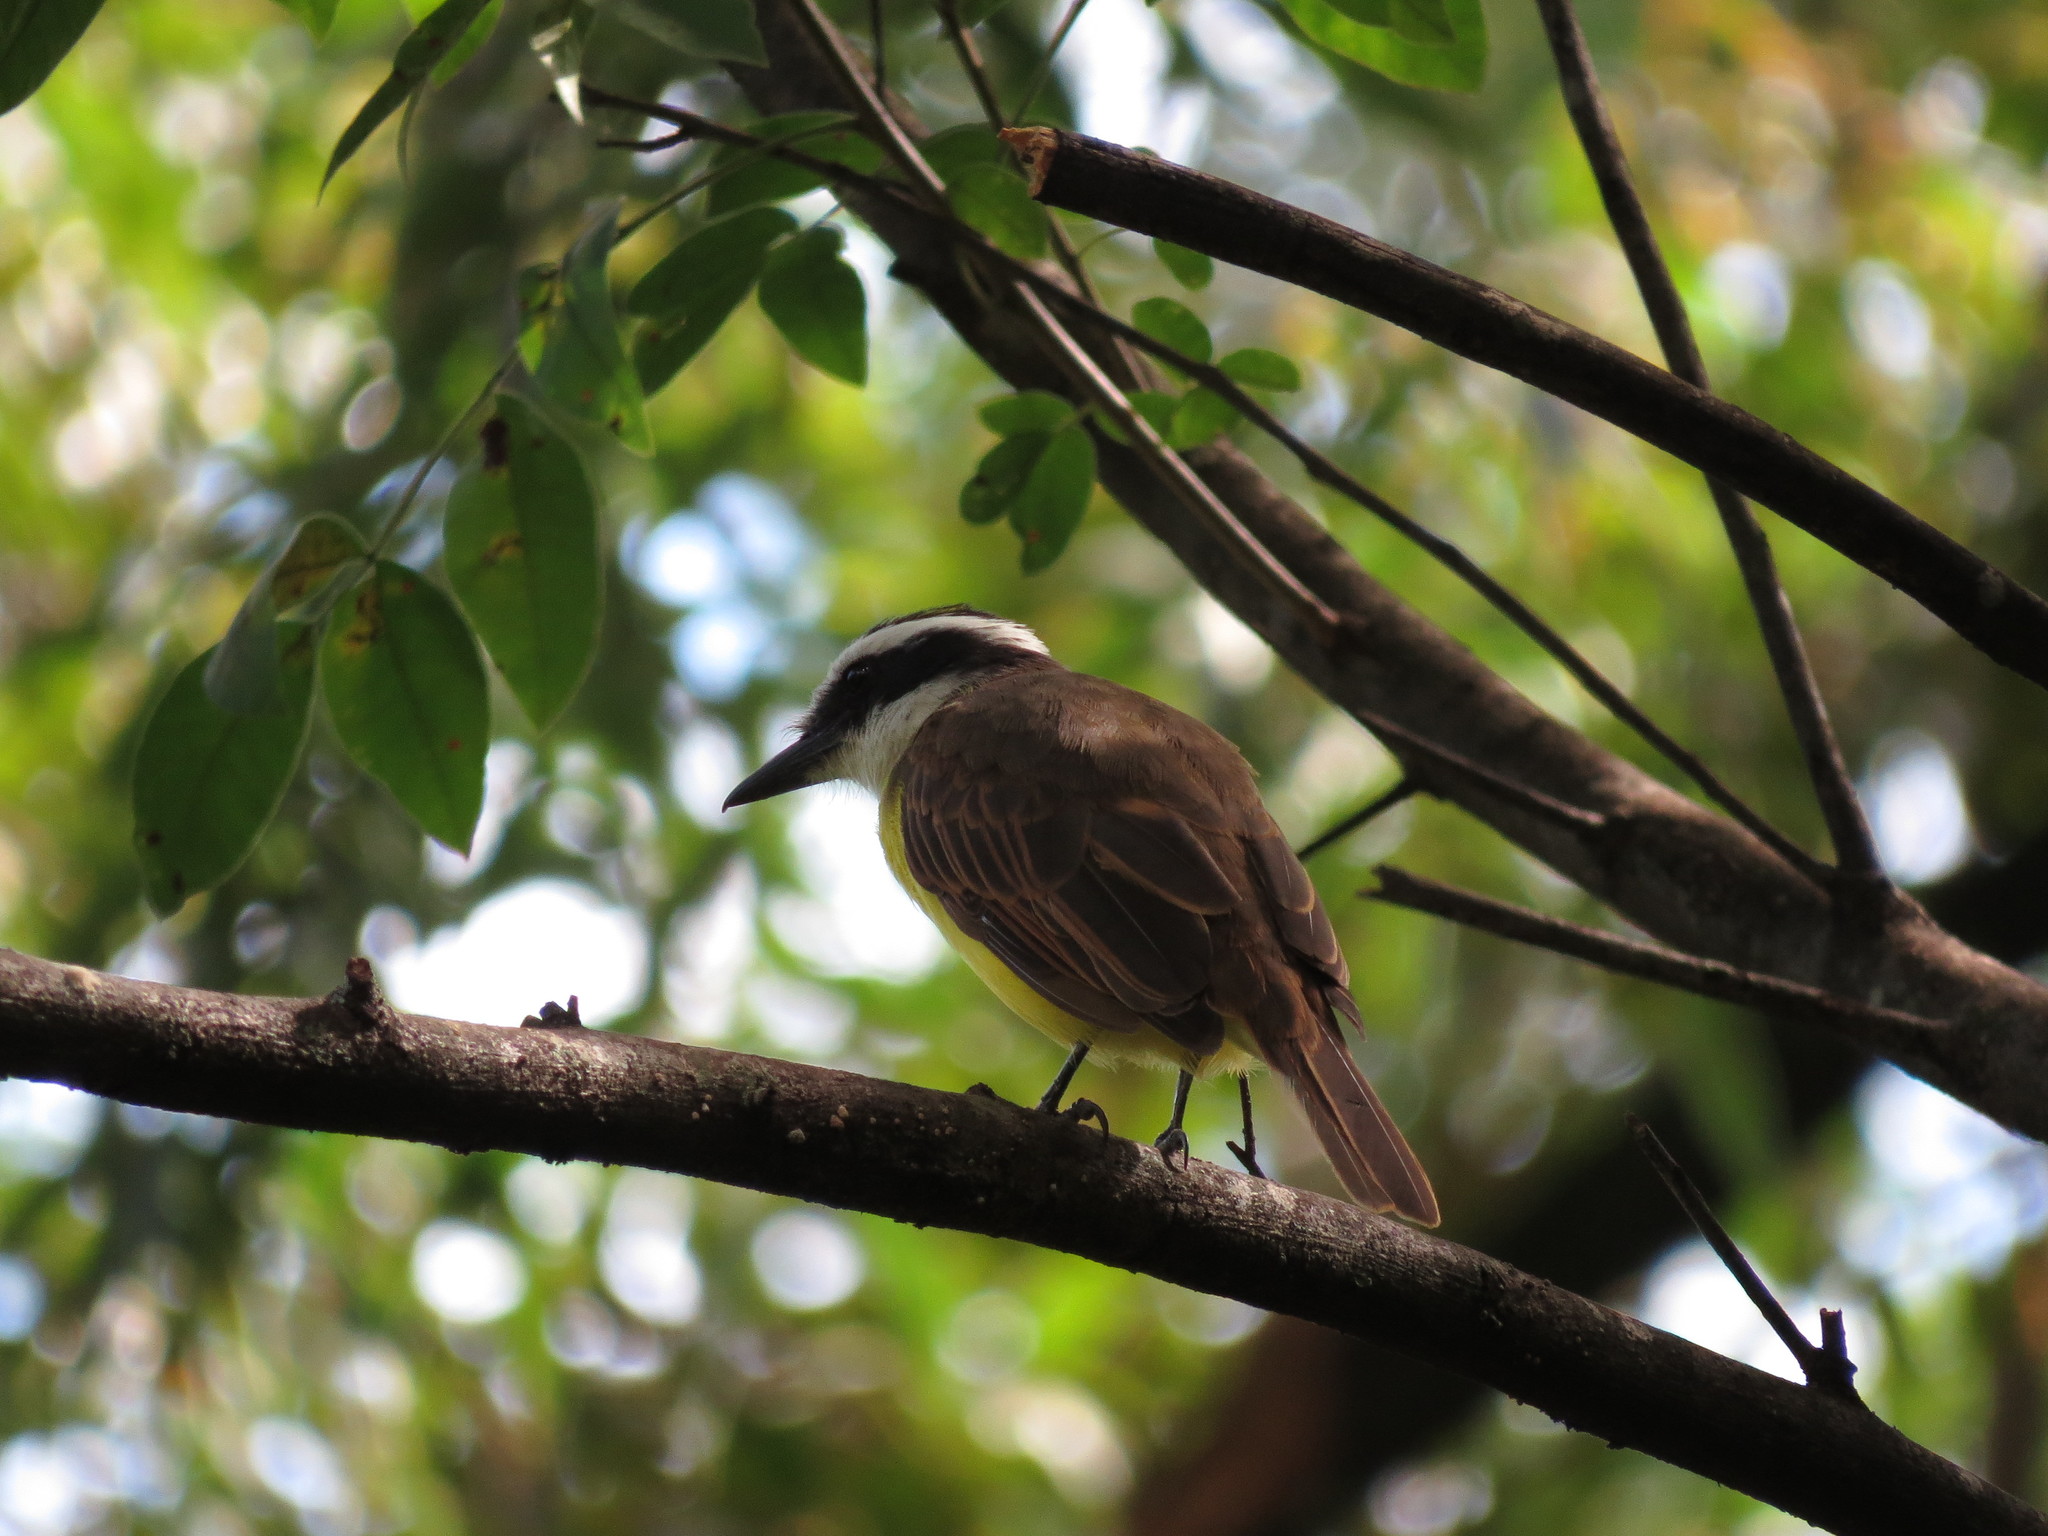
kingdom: Animalia
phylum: Chordata
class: Aves
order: Passeriformes
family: Tyrannidae
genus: Pitangus
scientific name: Pitangus sulphuratus
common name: Great kiskadee
